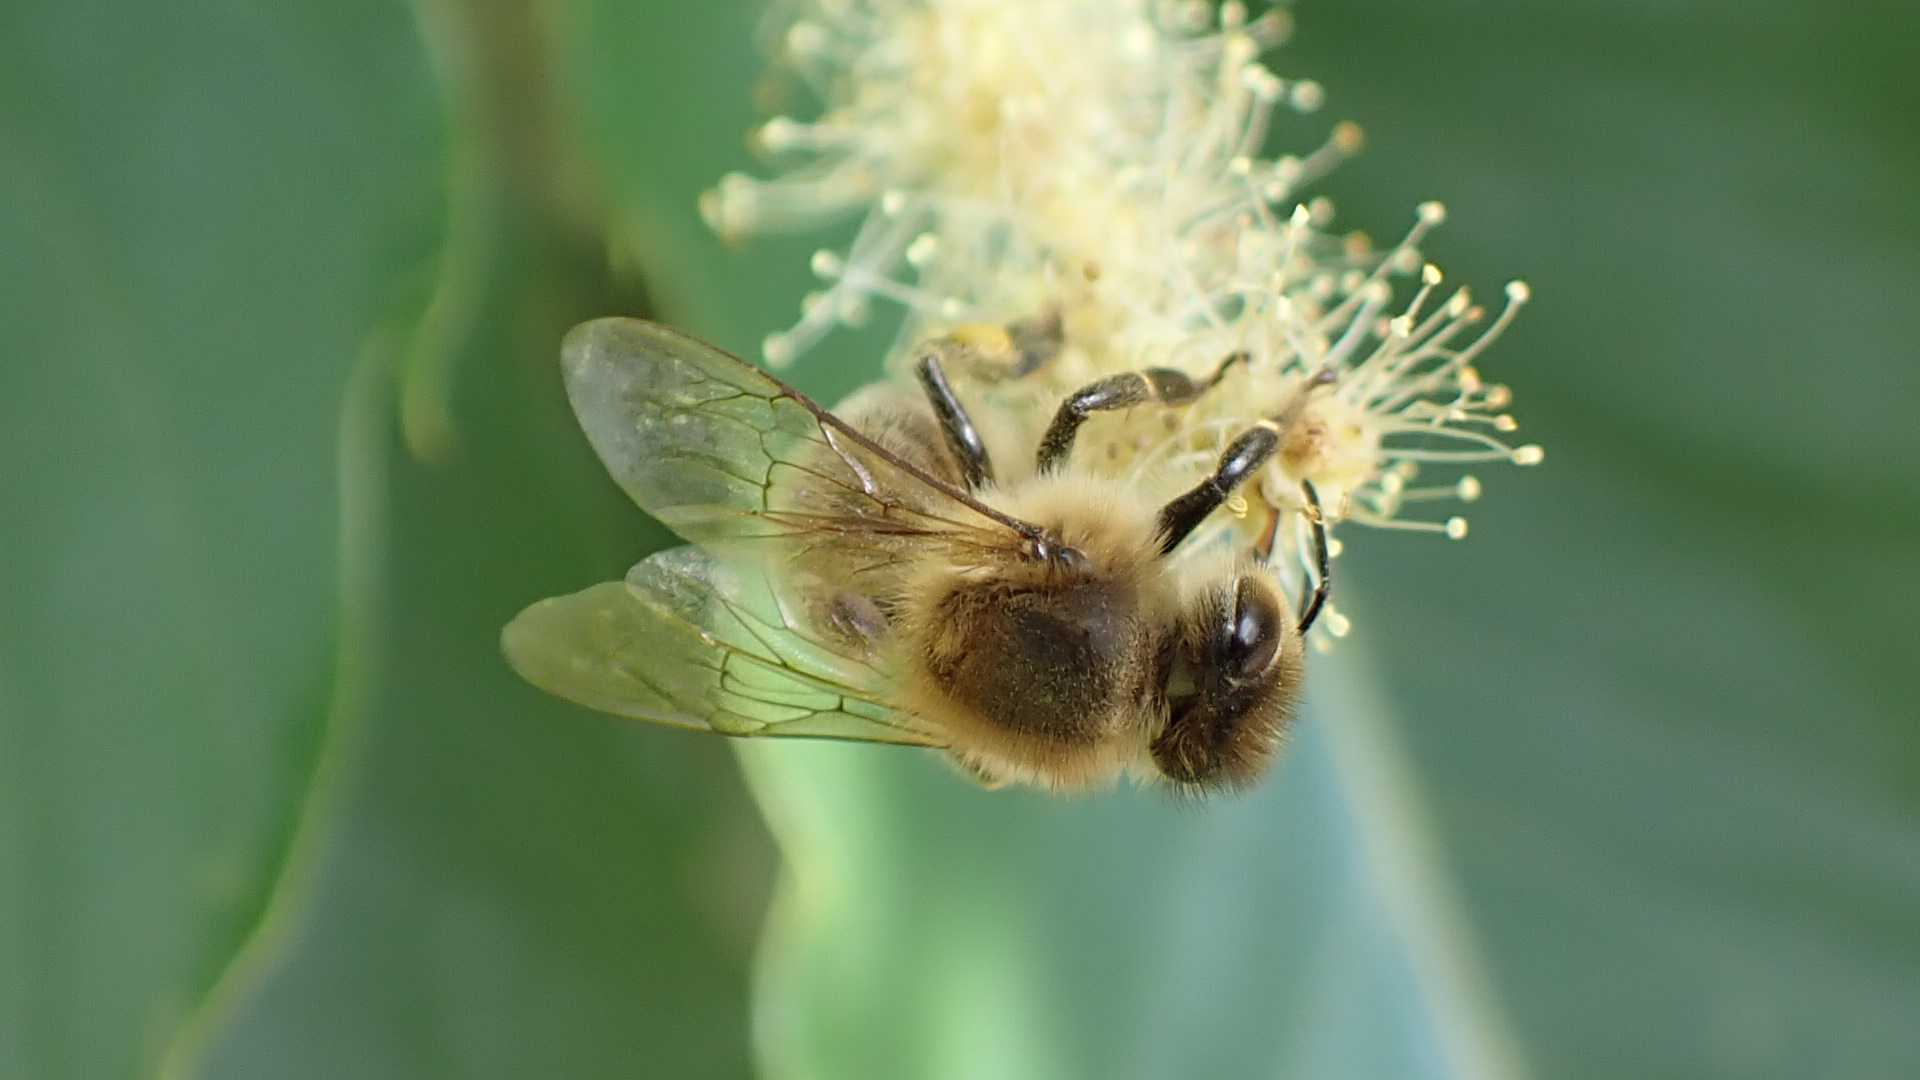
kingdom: Animalia
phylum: Arthropoda
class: Insecta
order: Hymenoptera
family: Apidae
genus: Apis
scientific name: Apis mellifera
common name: Honey bee
